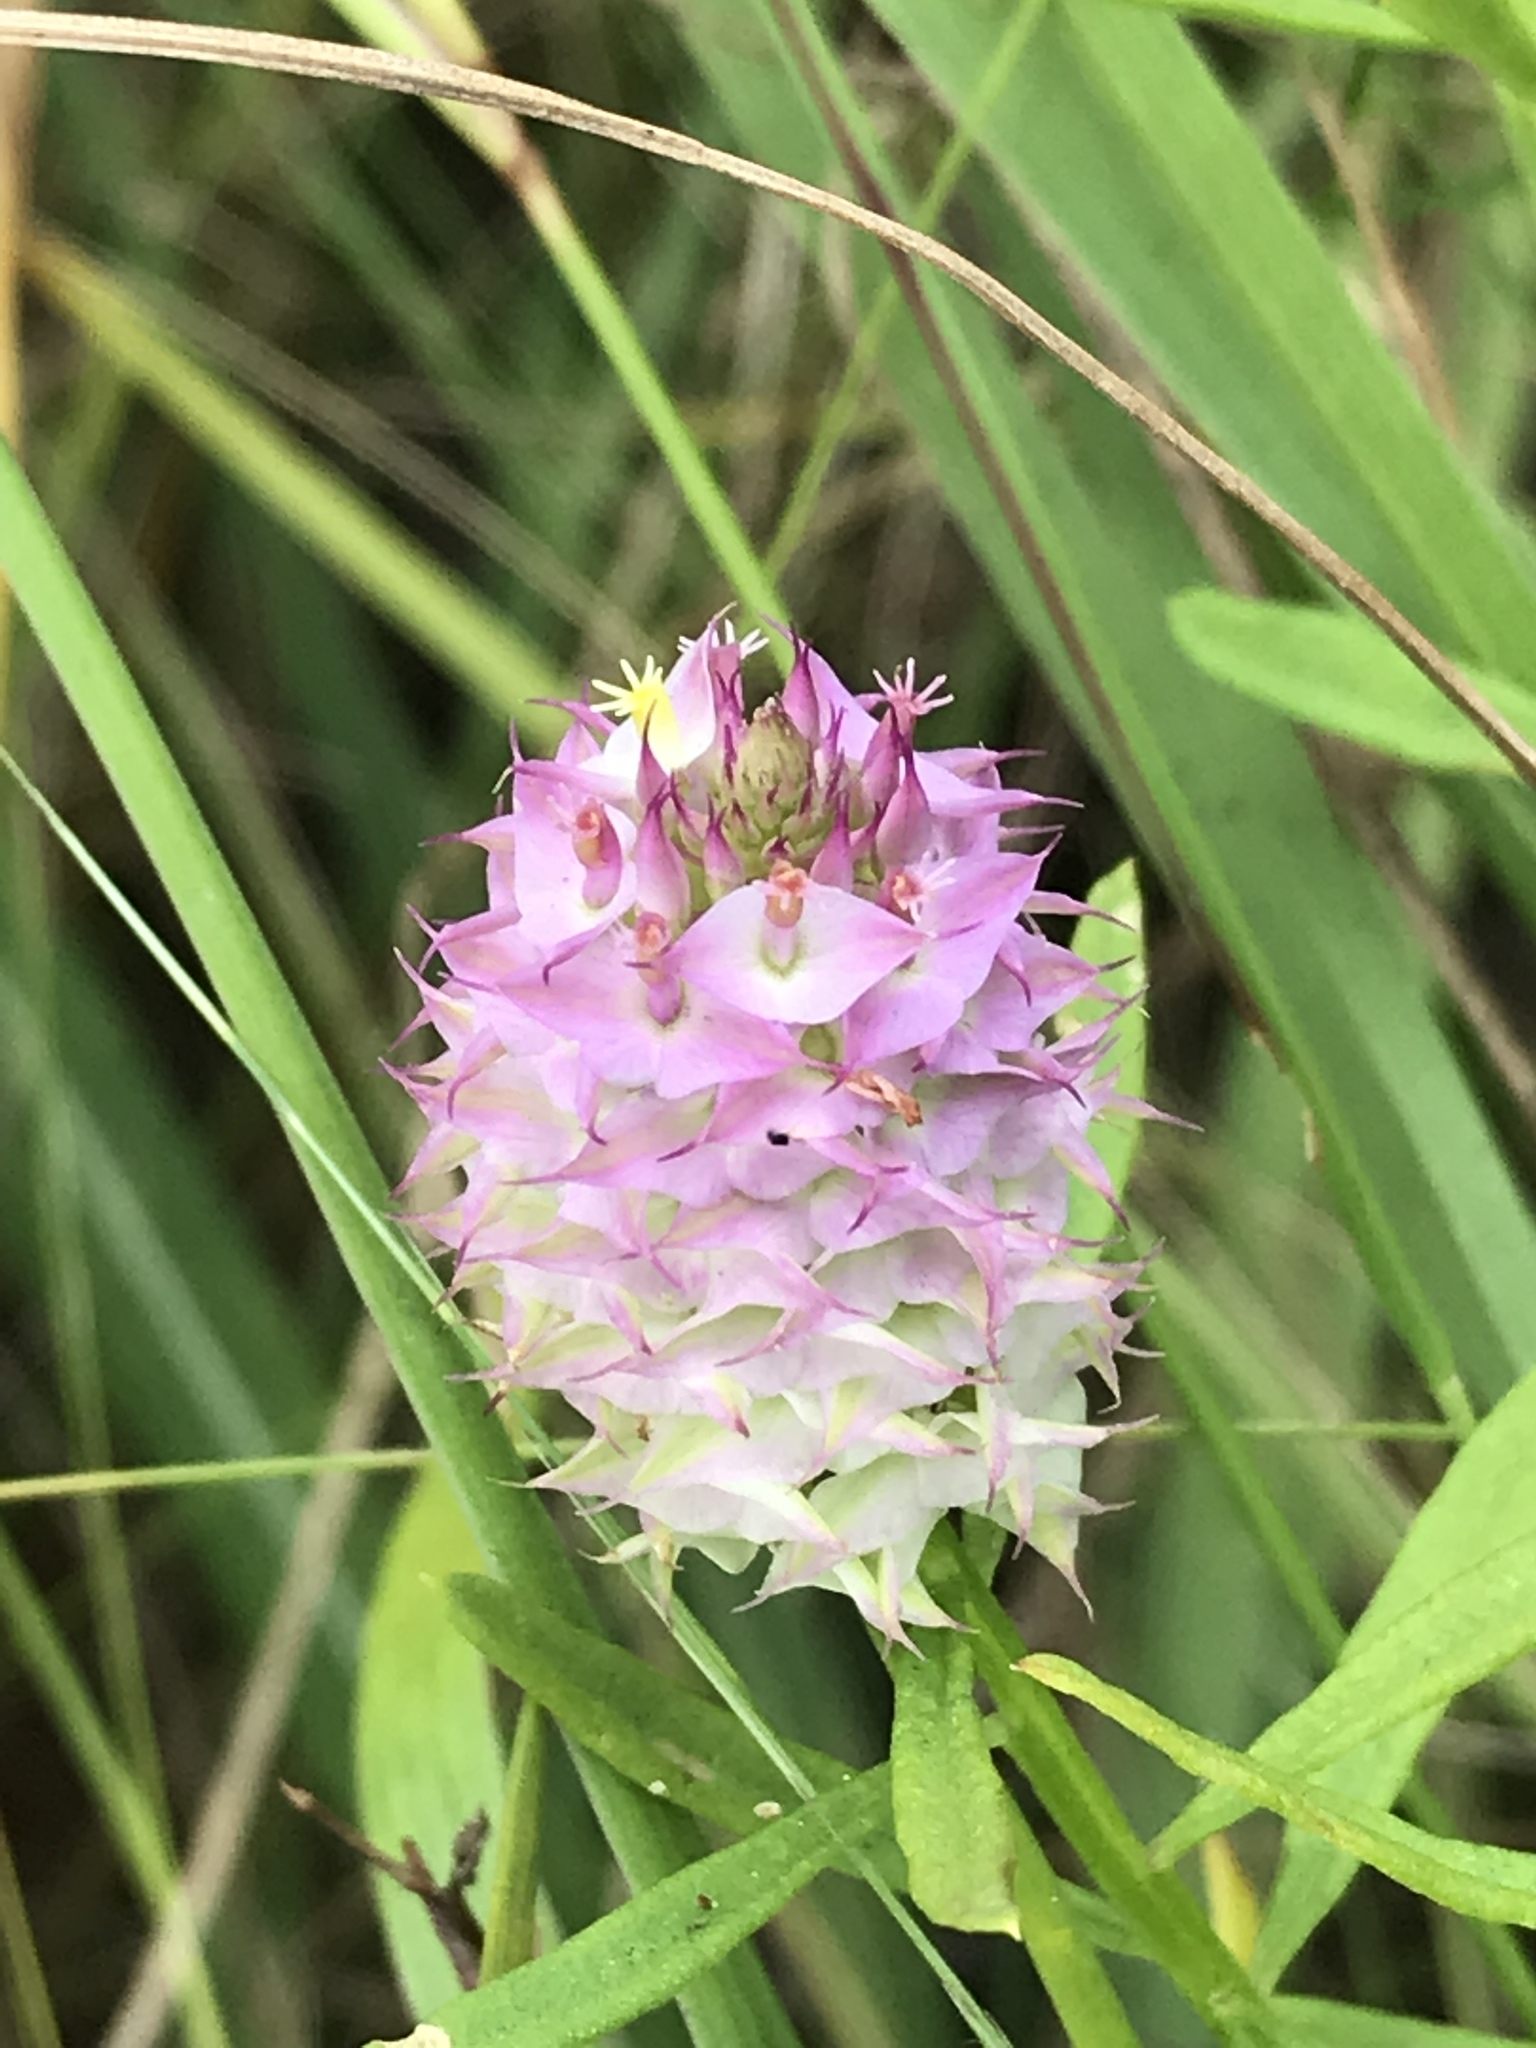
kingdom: Plantae
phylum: Tracheophyta
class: Magnoliopsida
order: Fabales
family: Polygalaceae
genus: Polygala
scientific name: Polygala cruciata
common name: Drumheads
